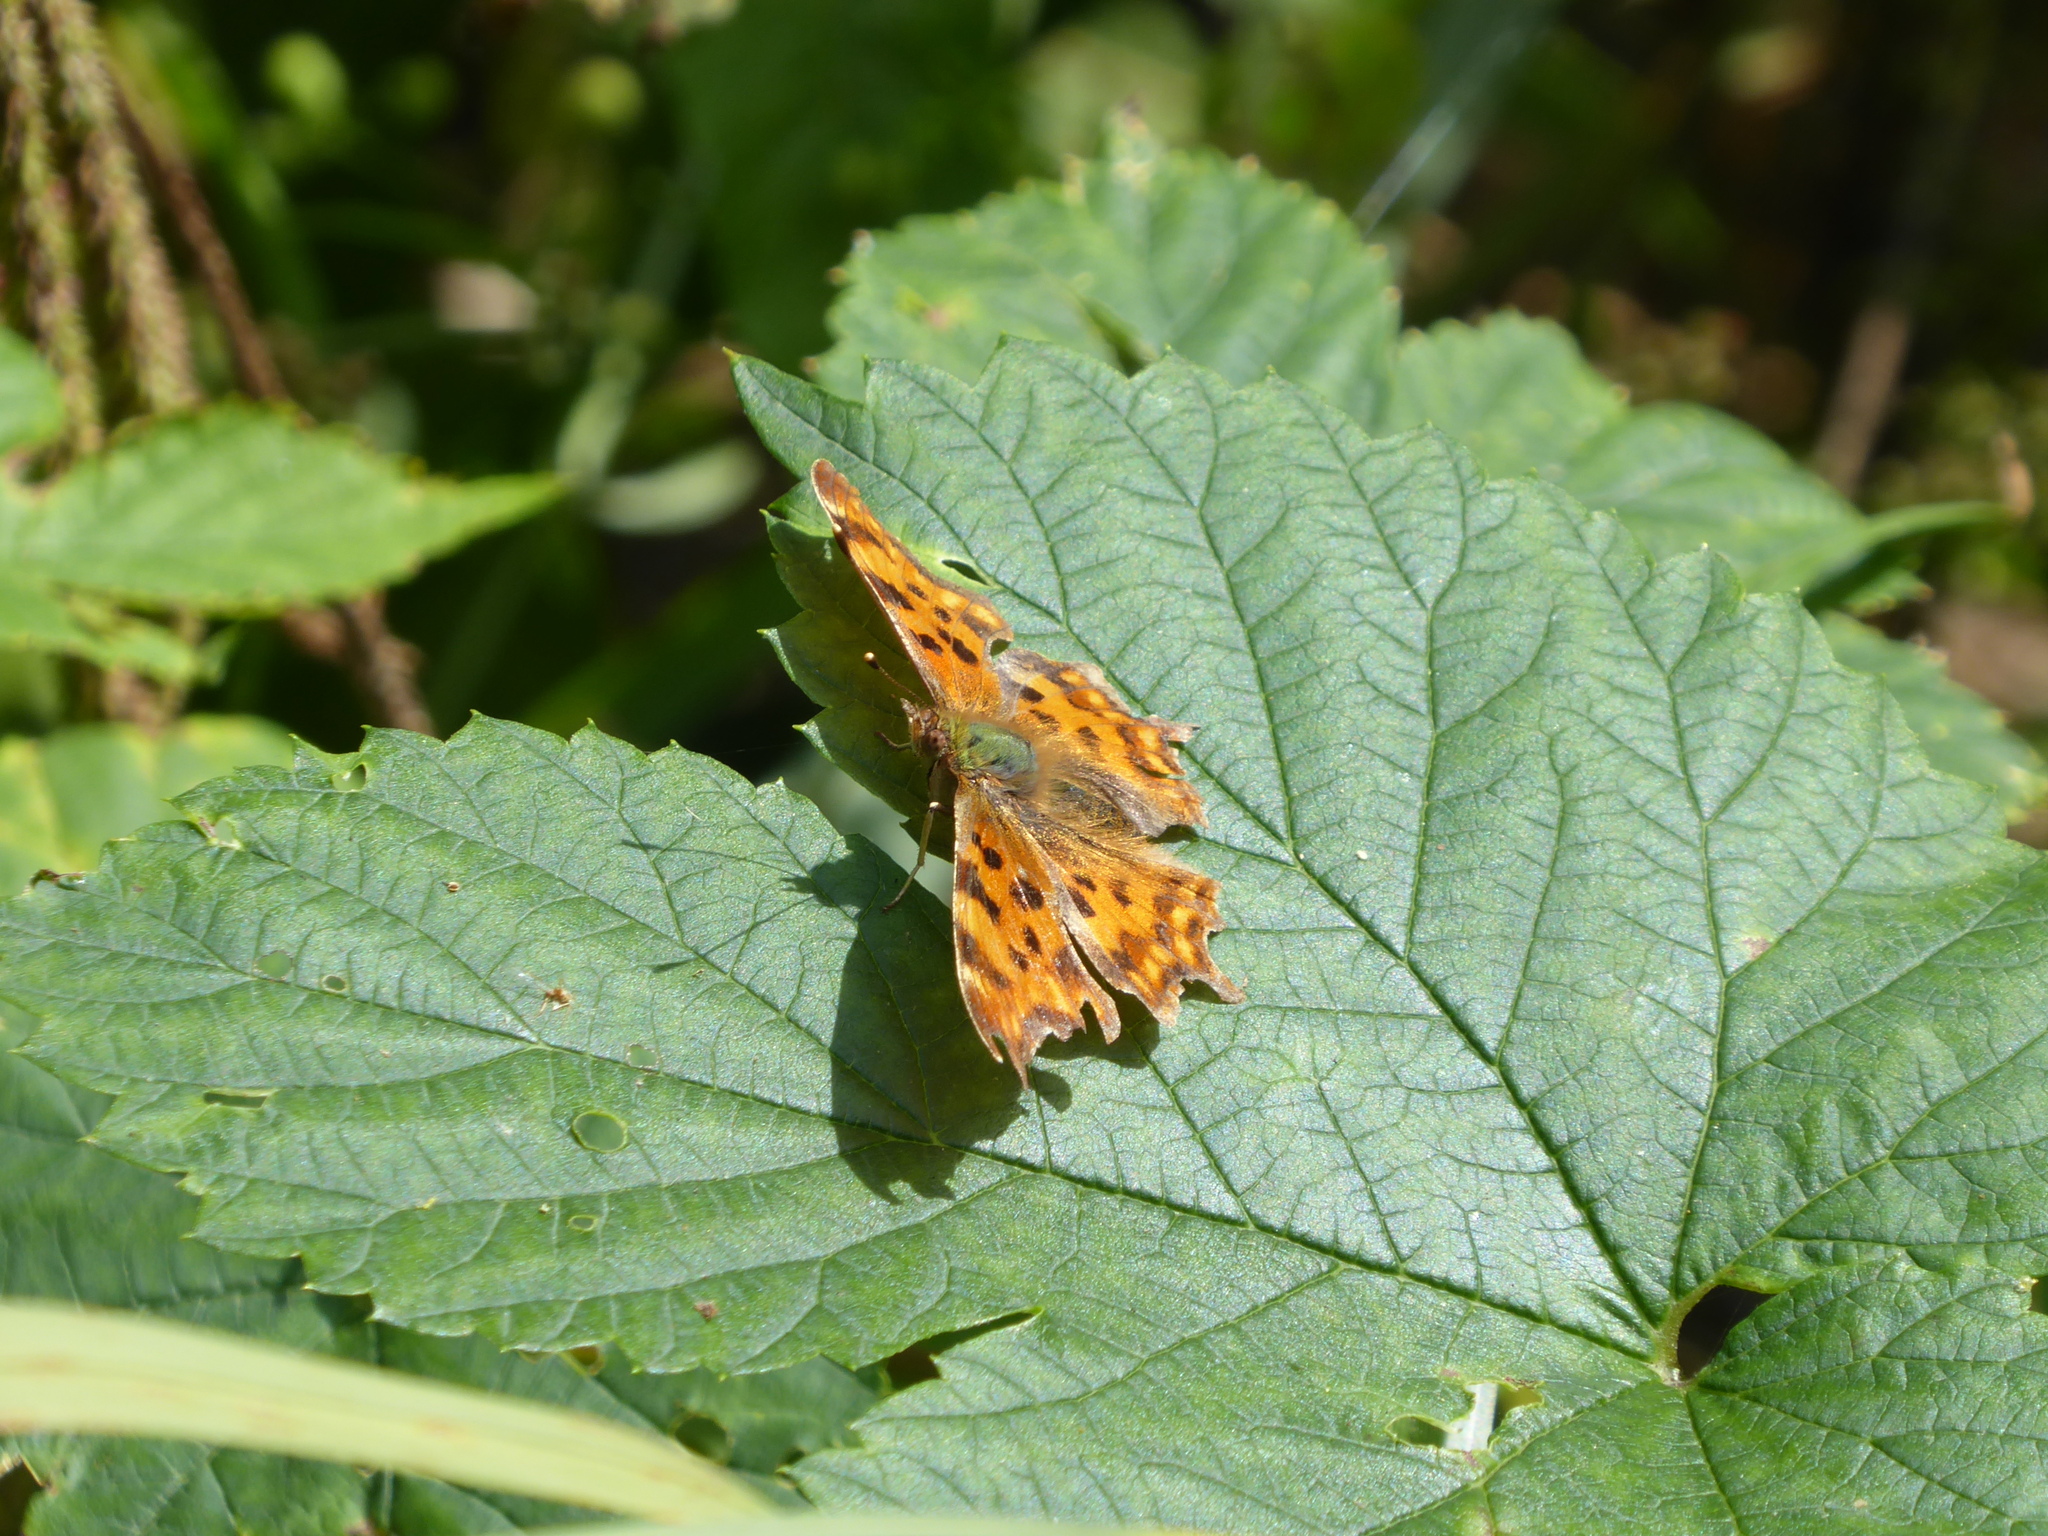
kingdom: Animalia
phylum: Arthropoda
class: Insecta
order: Lepidoptera
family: Nymphalidae
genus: Polygonia
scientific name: Polygonia c-album
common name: Comma
